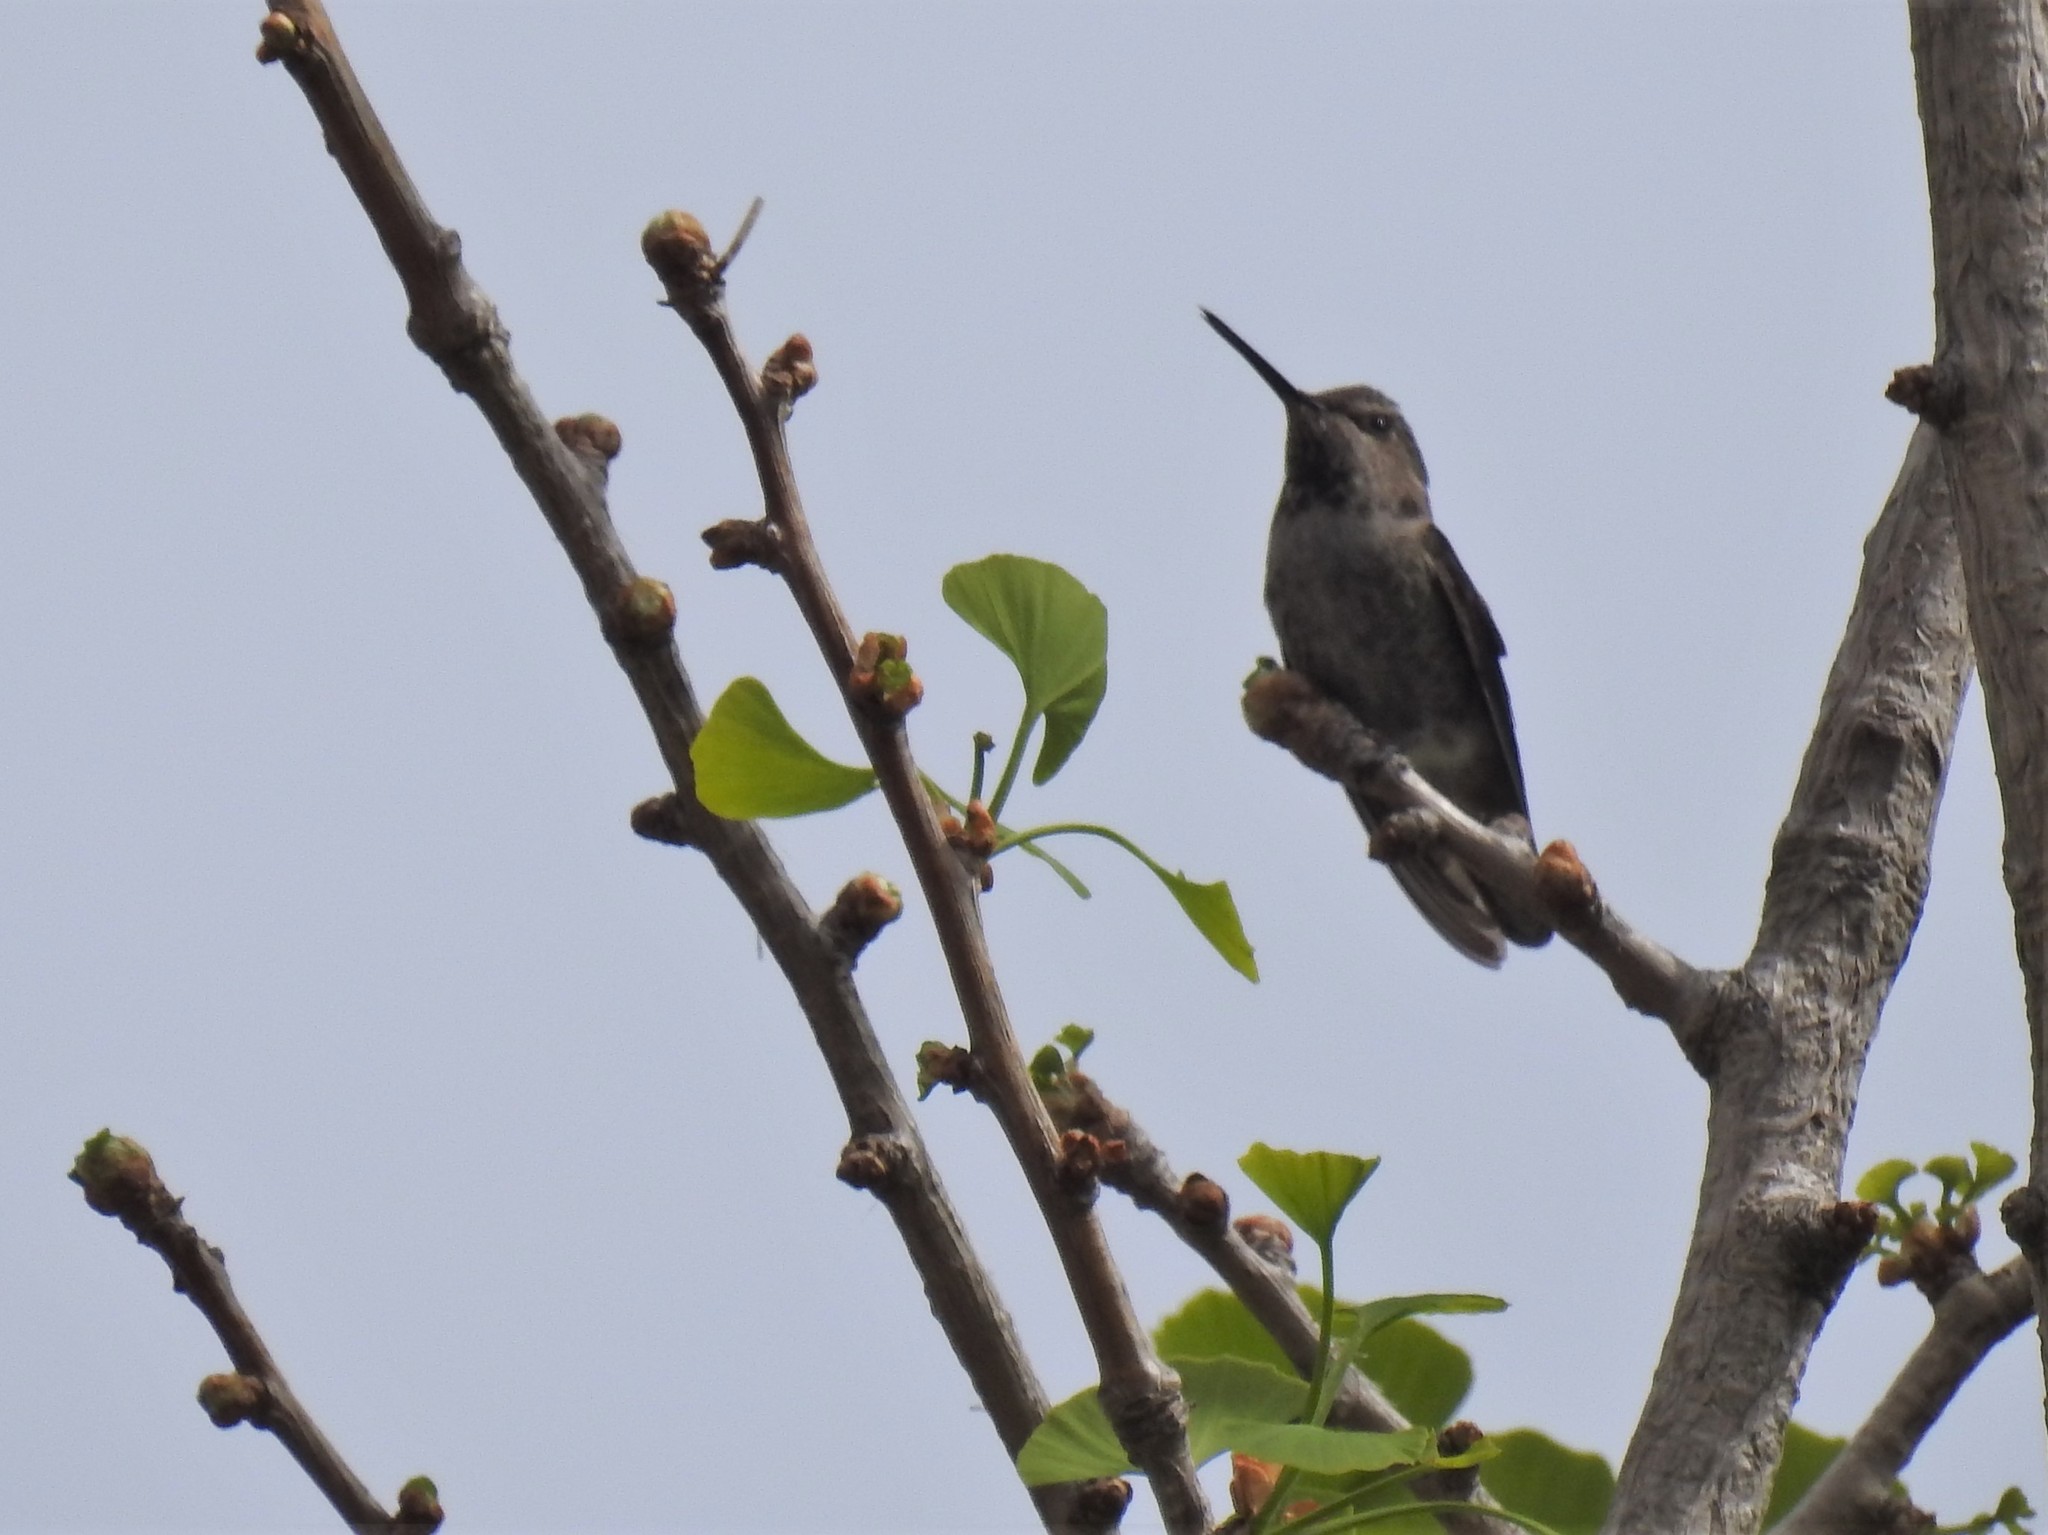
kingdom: Animalia
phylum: Chordata
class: Aves
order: Apodiformes
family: Trochilidae
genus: Calypte
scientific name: Calypte anna
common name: Anna's hummingbird
